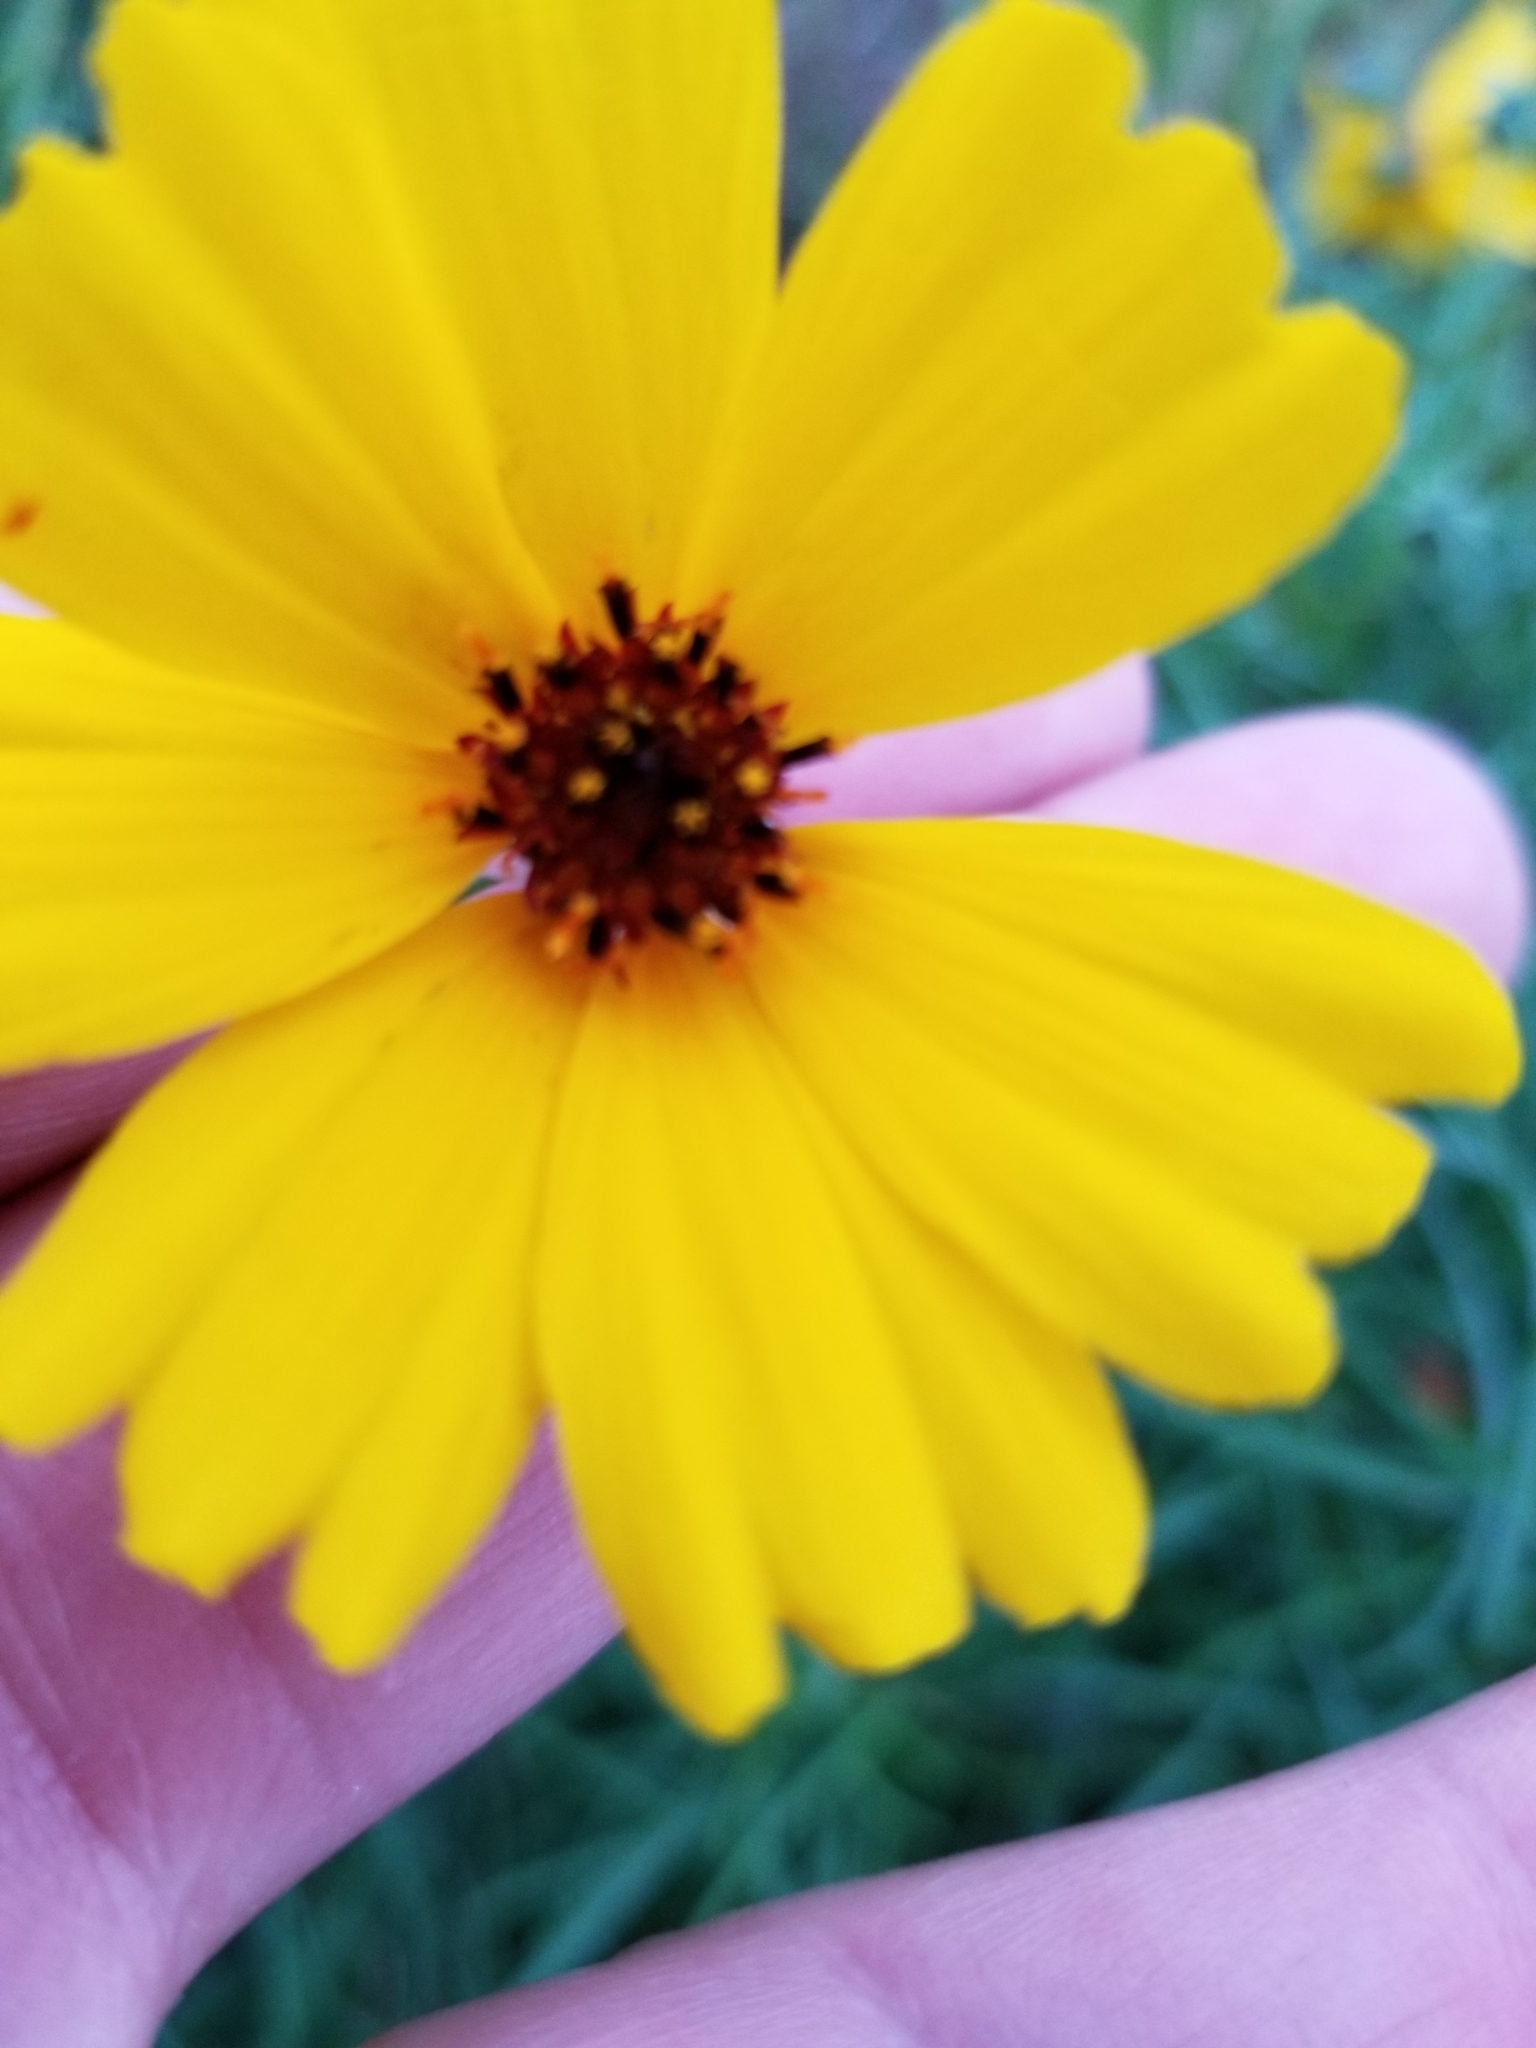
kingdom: Plantae
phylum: Tracheophyta
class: Magnoliopsida
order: Asterales
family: Asteraceae
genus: Thelesperma
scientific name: Thelesperma filifolium
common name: Stiff greenthread
